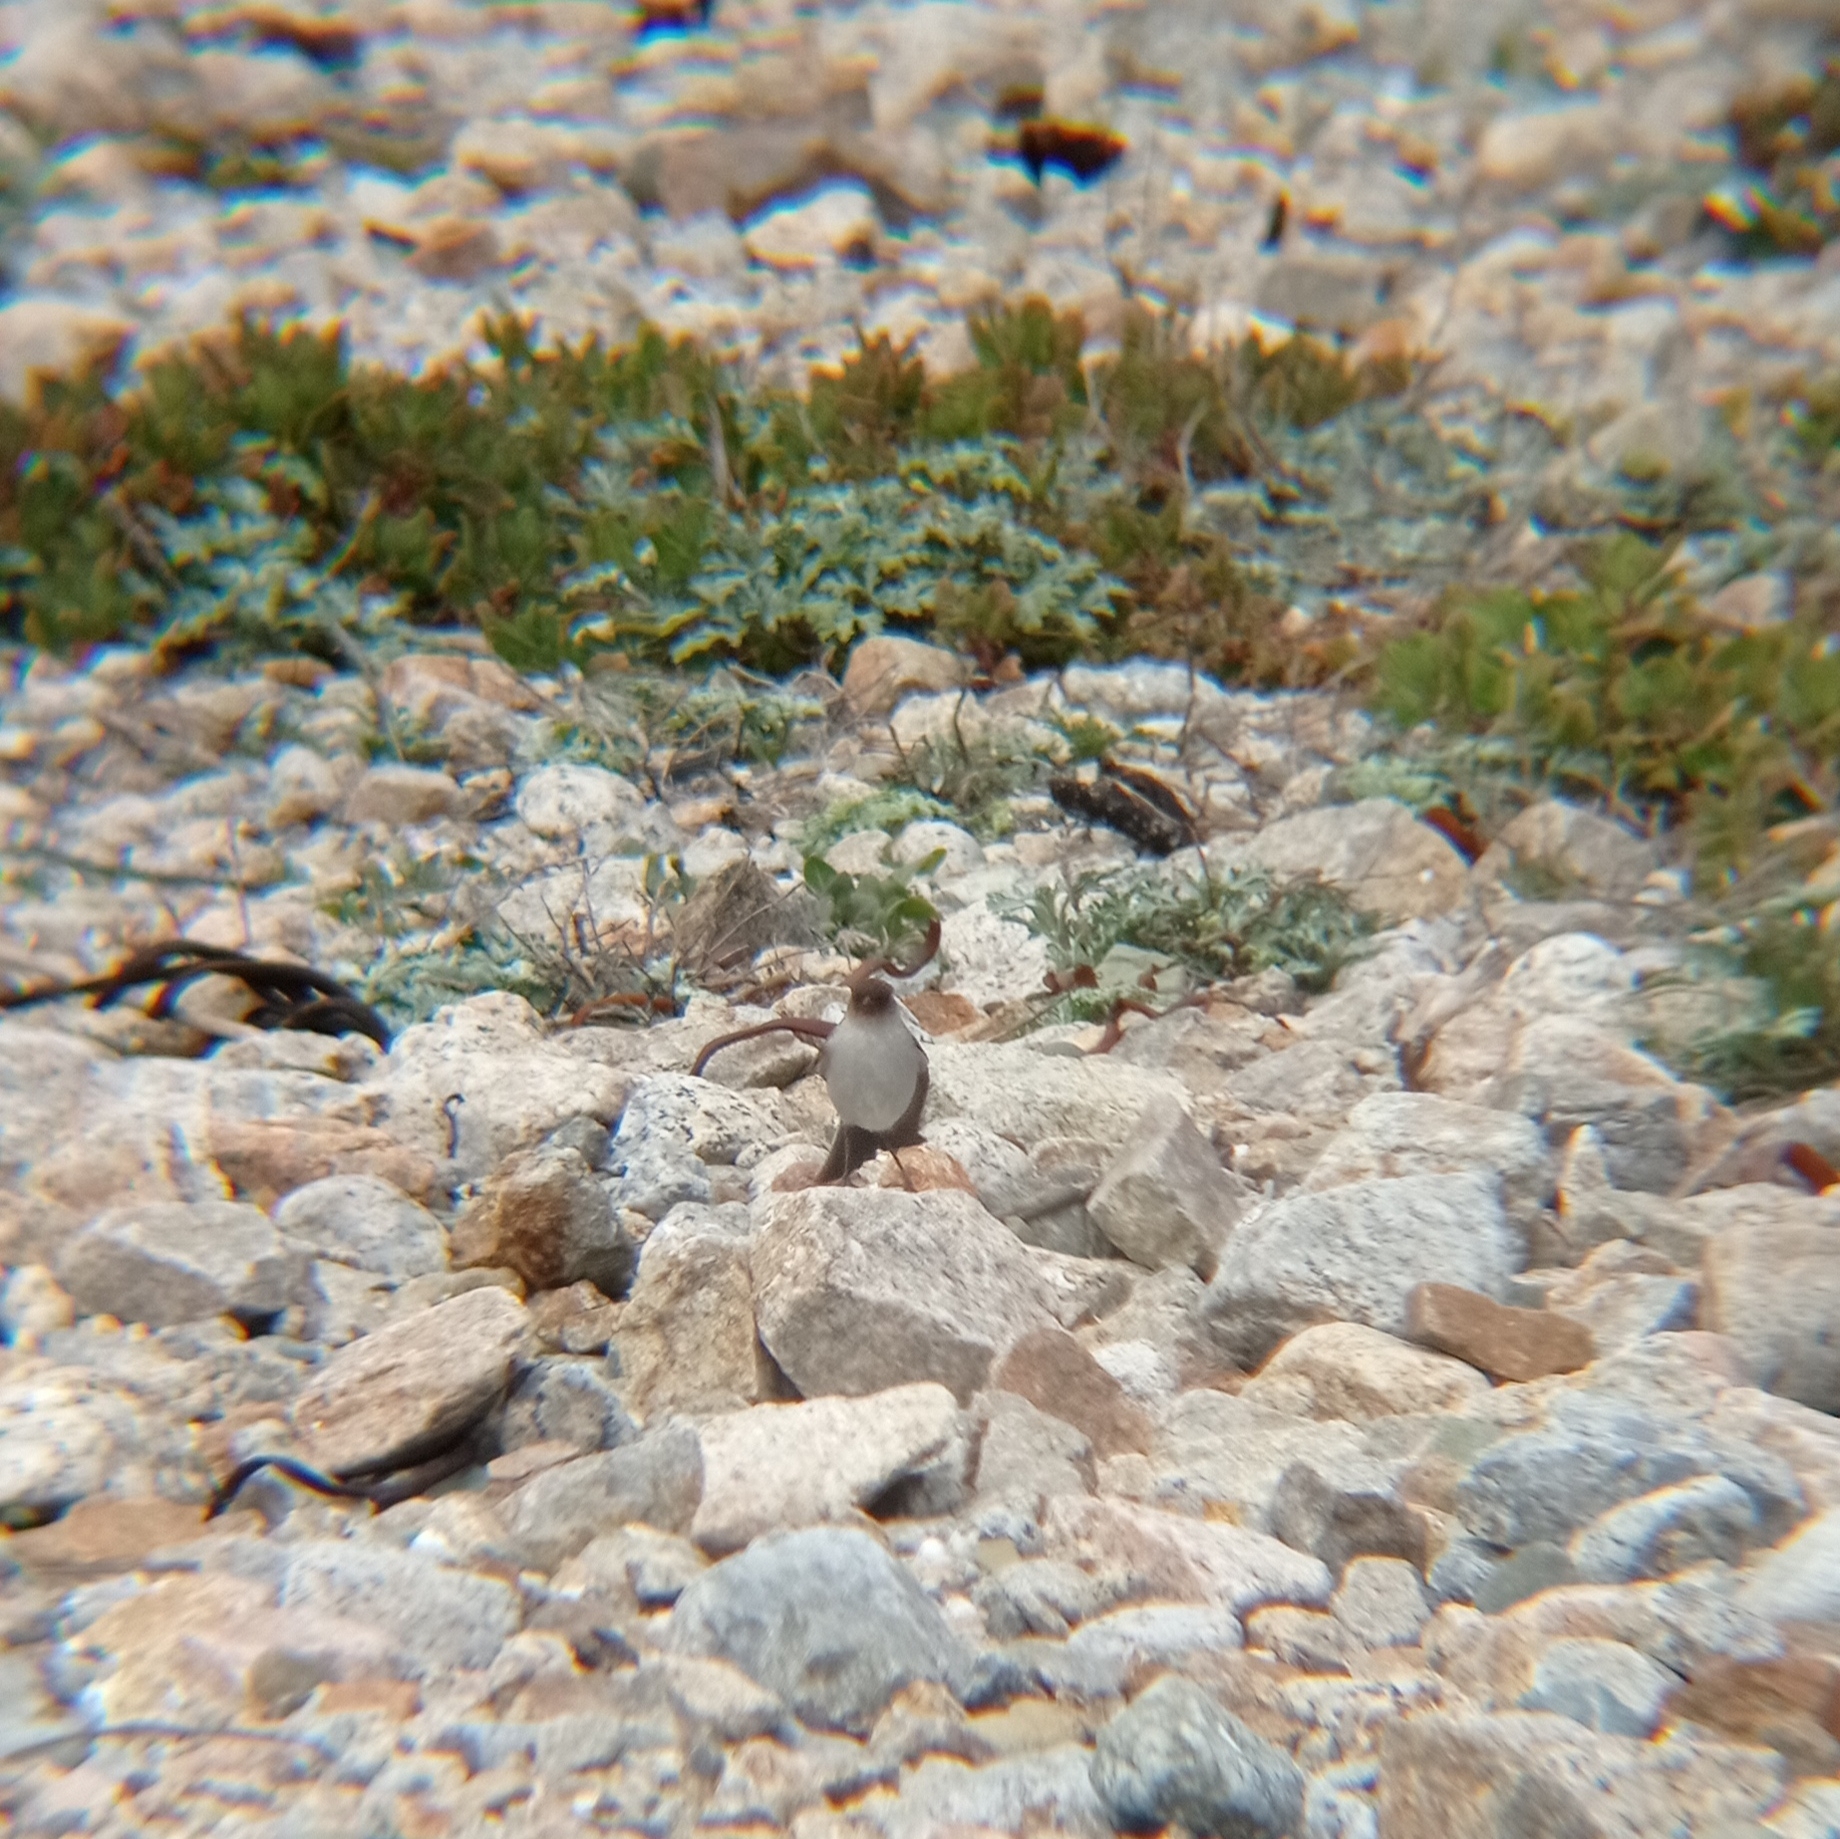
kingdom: Animalia
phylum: Chordata
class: Aves
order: Passeriformes
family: Tyrannidae
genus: Muscisaxicola
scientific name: Muscisaxicola maclovianus
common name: Dark-faced ground tyrant
